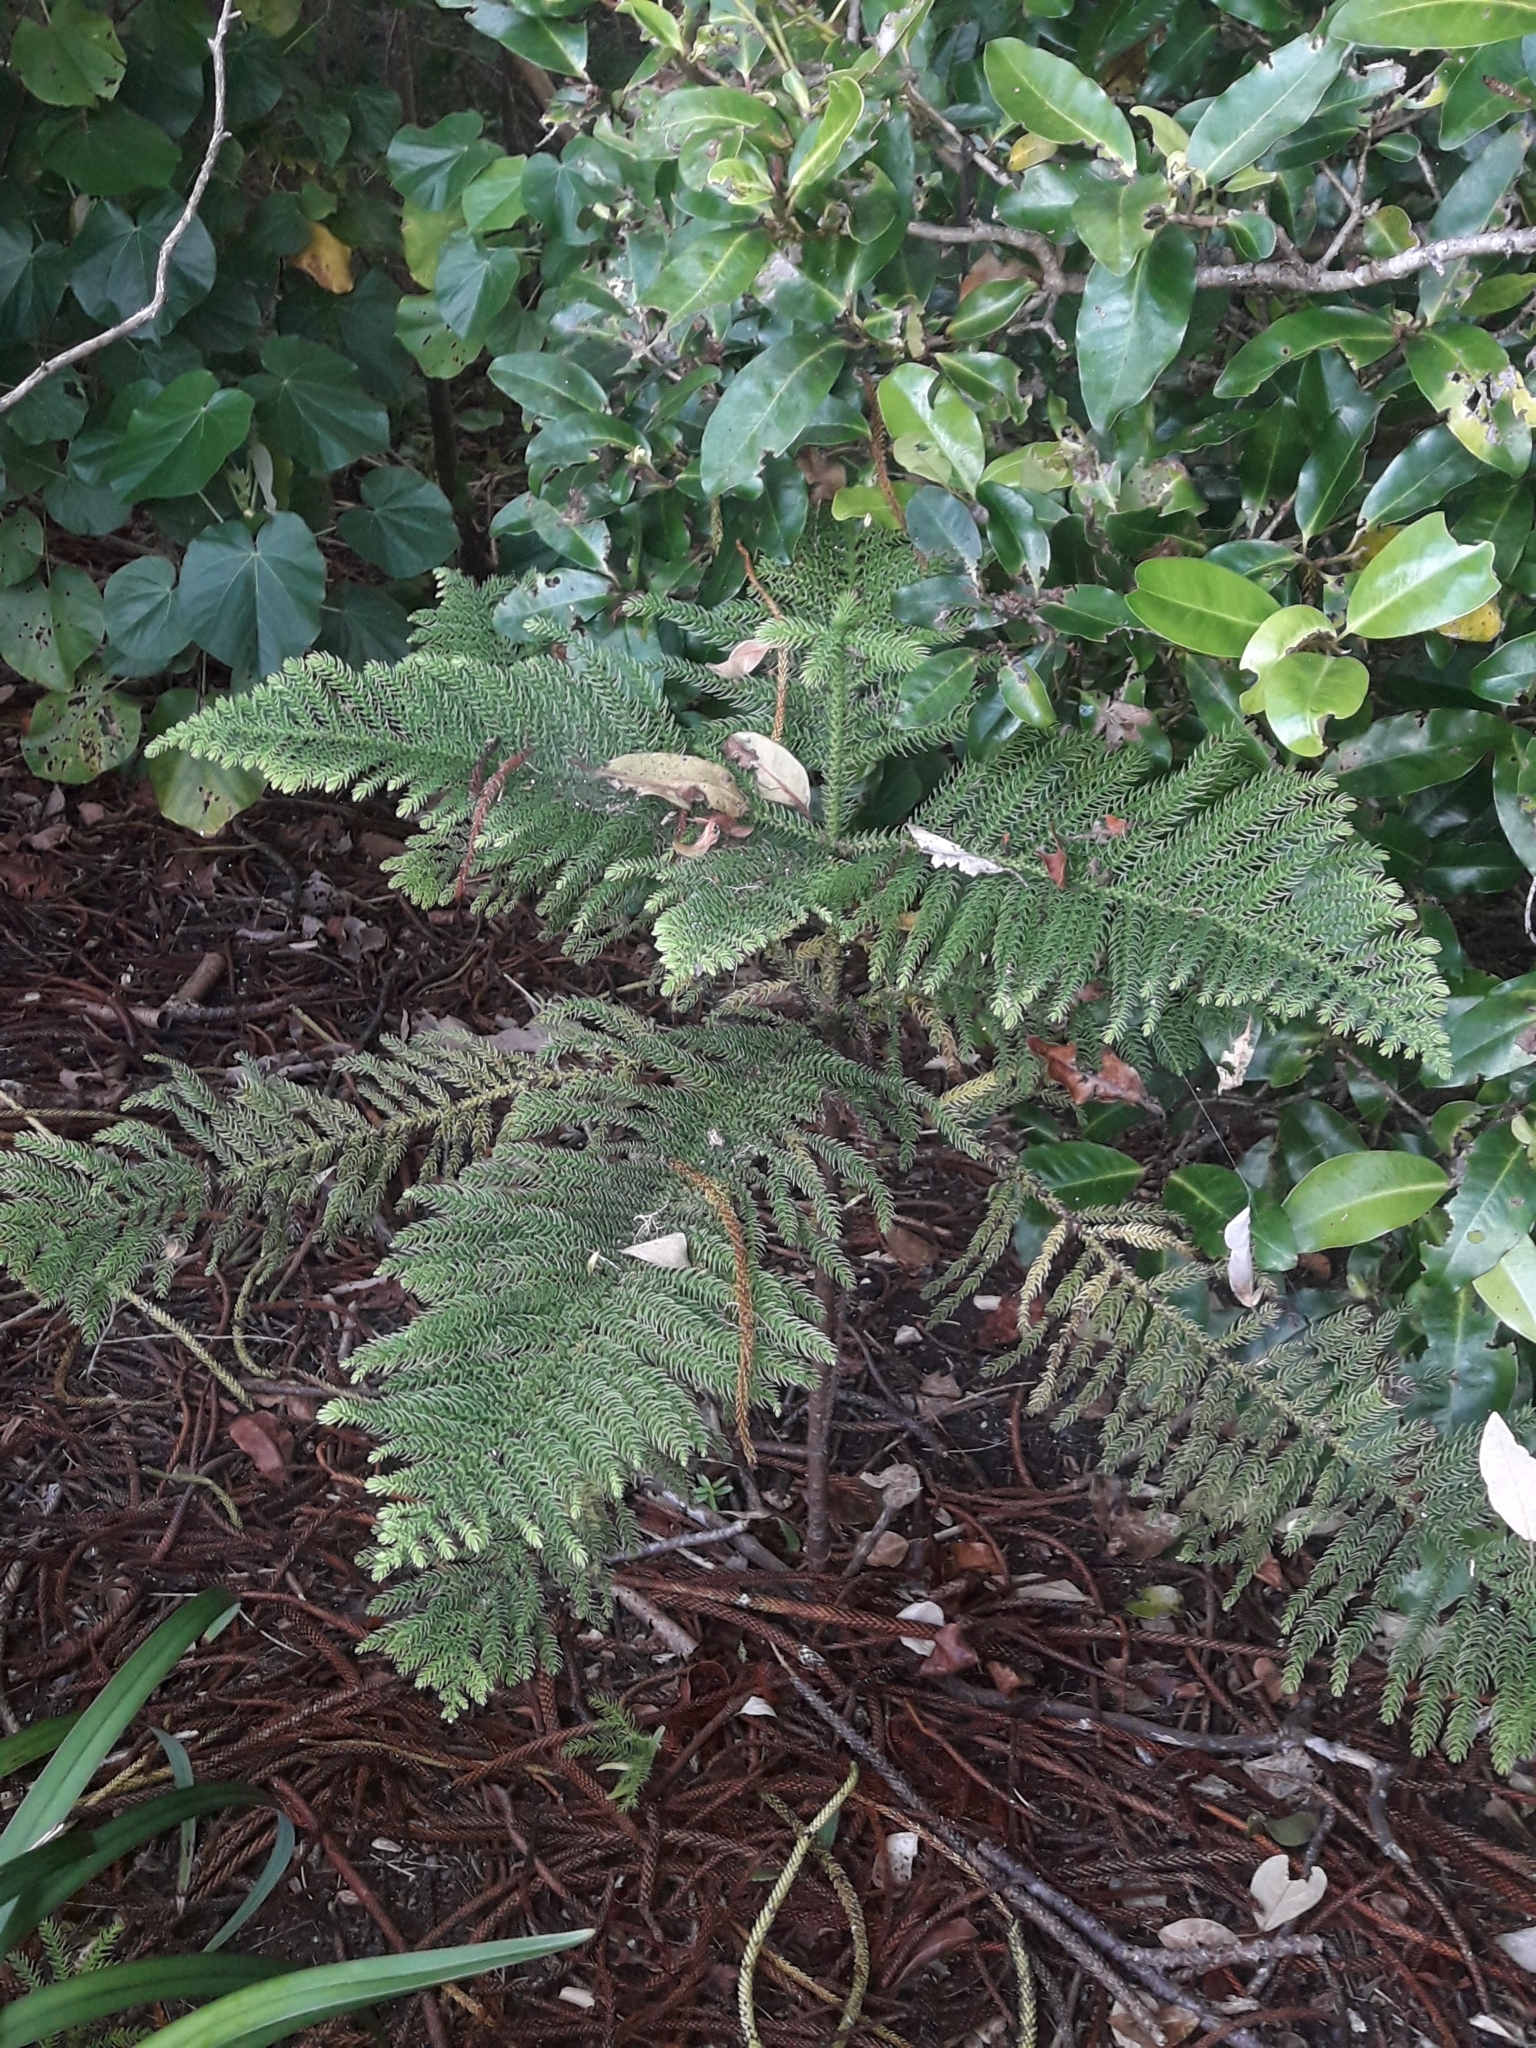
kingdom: Plantae
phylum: Tracheophyta
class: Pinopsida
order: Pinales
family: Araucariaceae
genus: Araucaria
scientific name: Araucaria heterophylla
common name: Norfolk island pine
